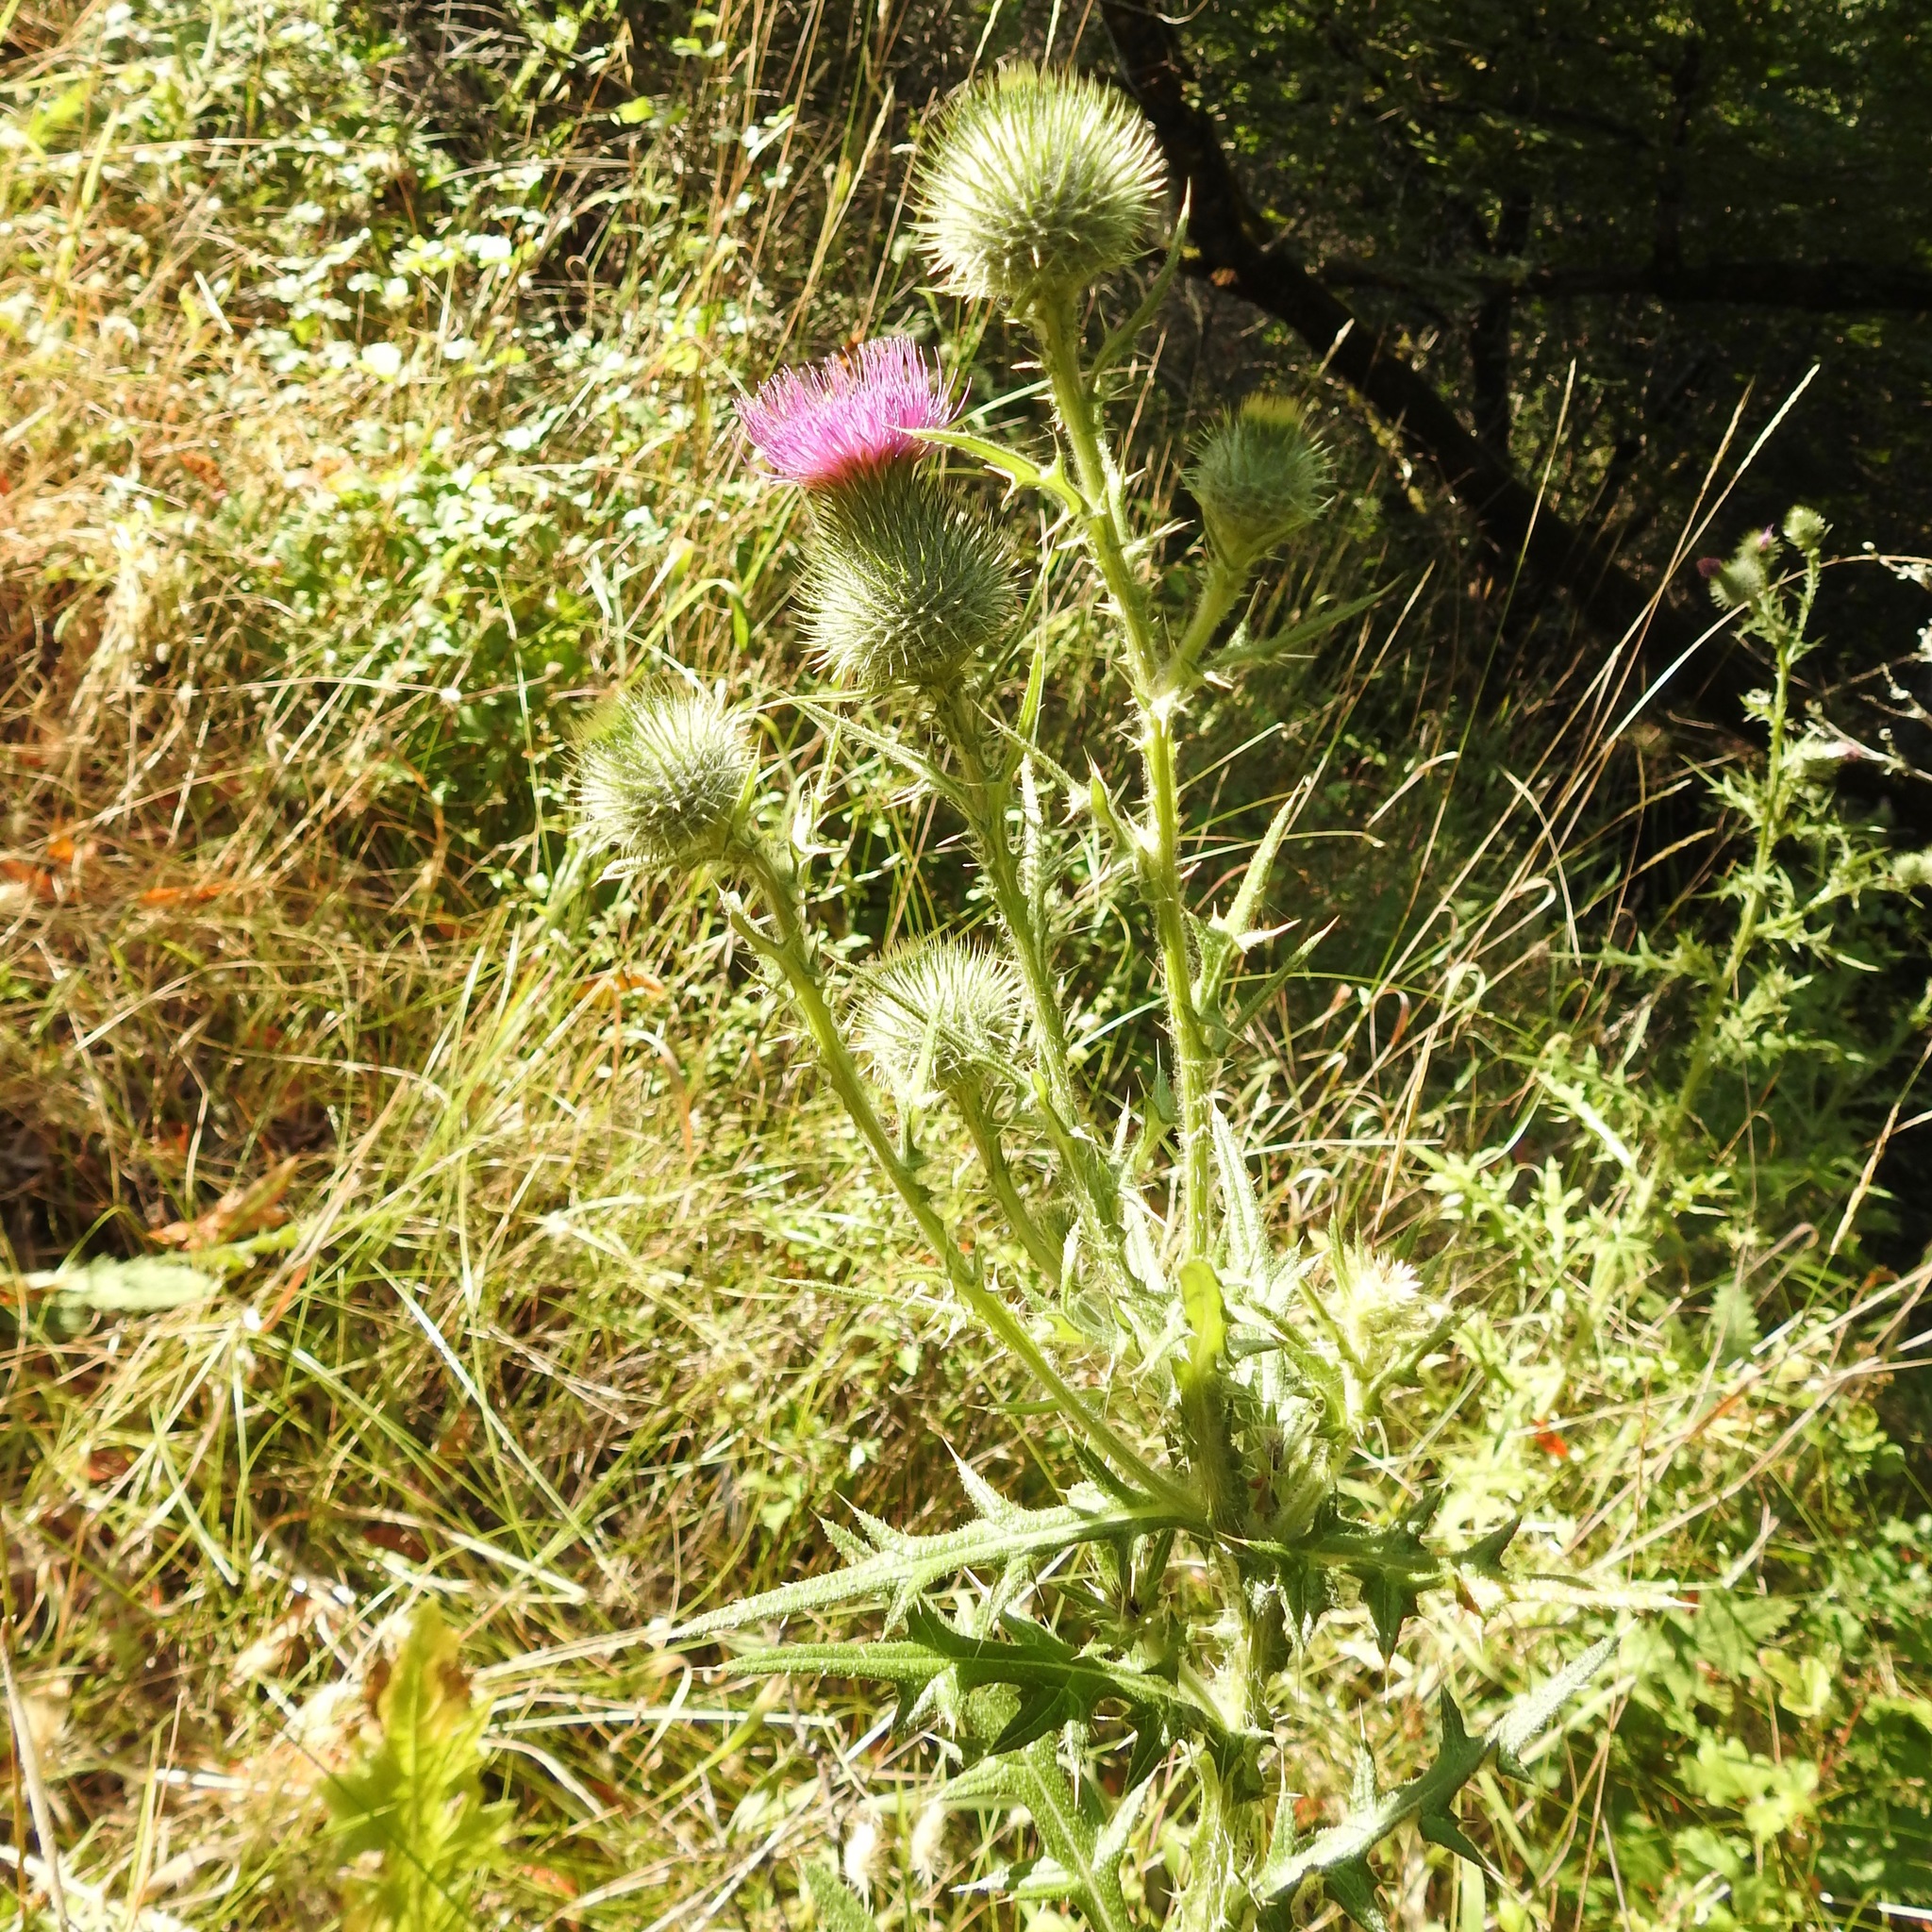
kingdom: Plantae
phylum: Tracheophyta
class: Magnoliopsida
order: Asterales
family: Asteraceae
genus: Cirsium
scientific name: Cirsium vulgare
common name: Bull thistle
